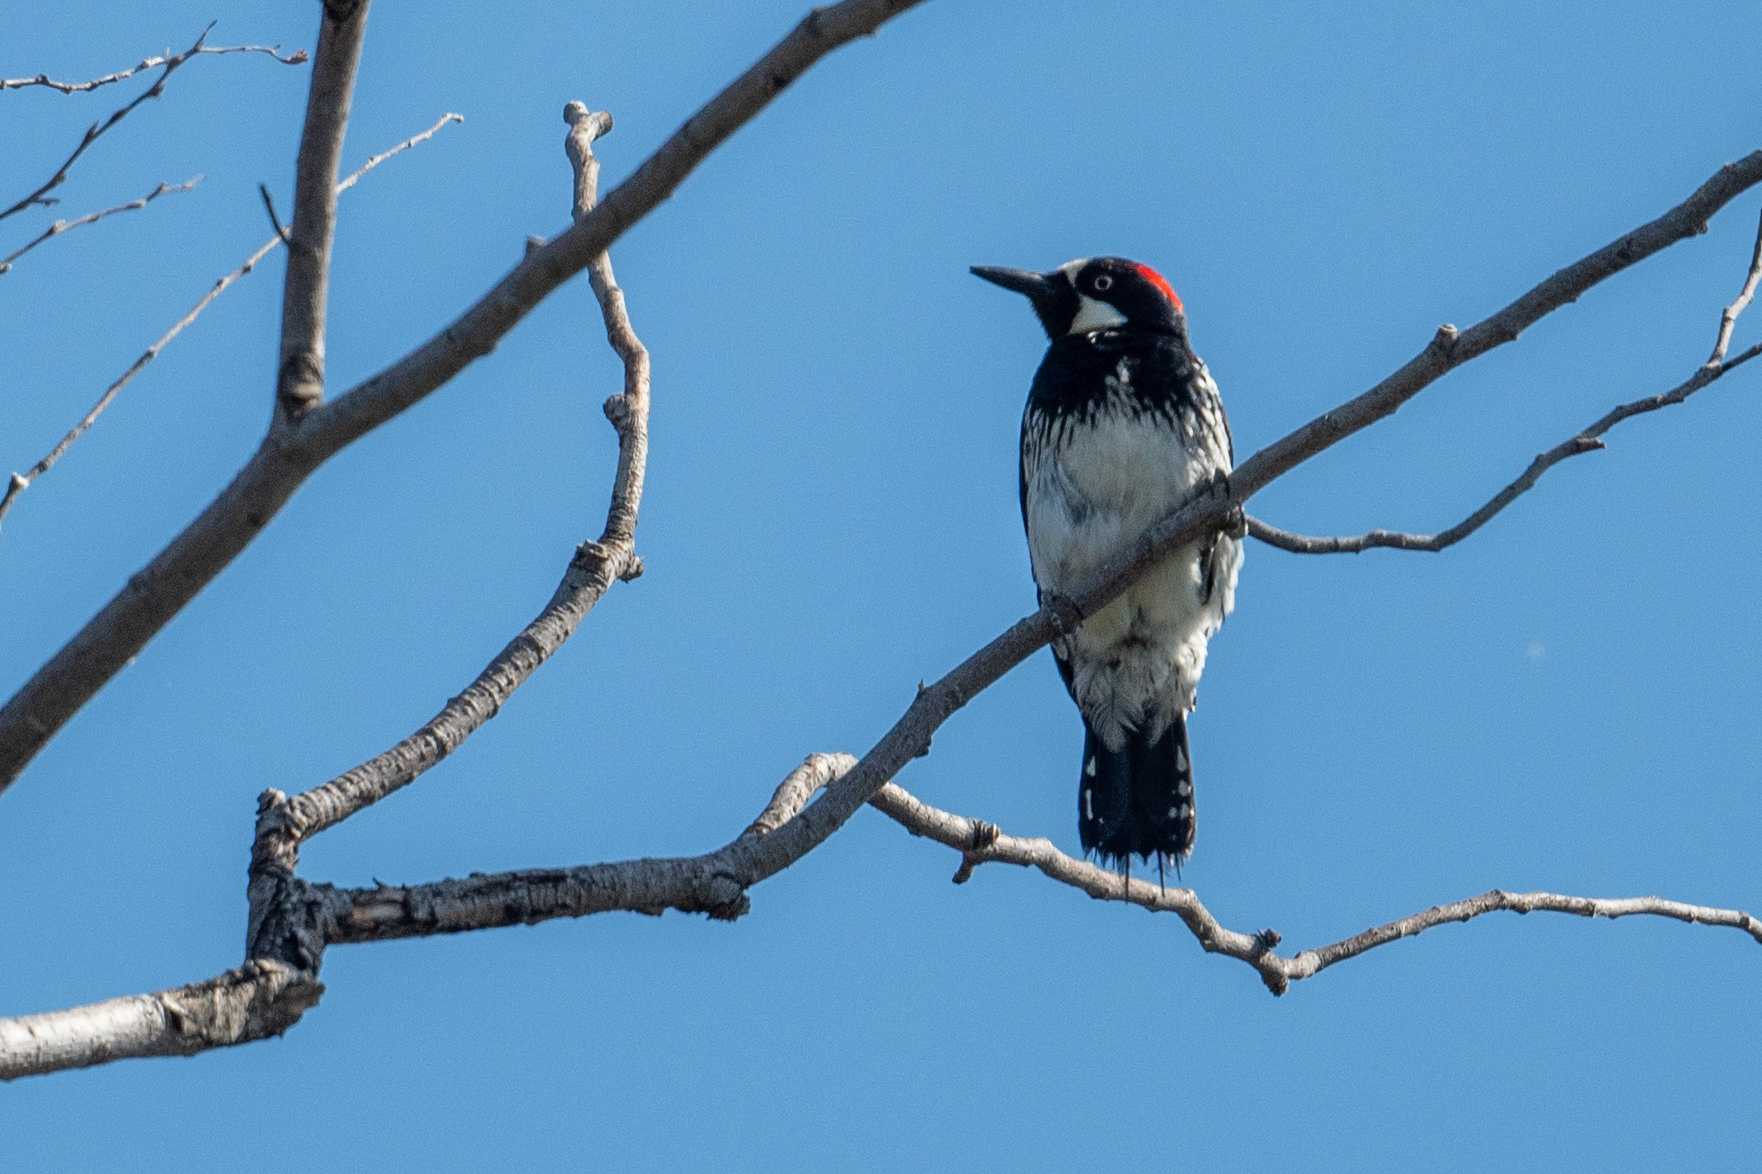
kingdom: Animalia
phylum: Chordata
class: Aves
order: Piciformes
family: Picidae
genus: Melanerpes
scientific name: Melanerpes formicivorus
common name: Acorn woodpecker
